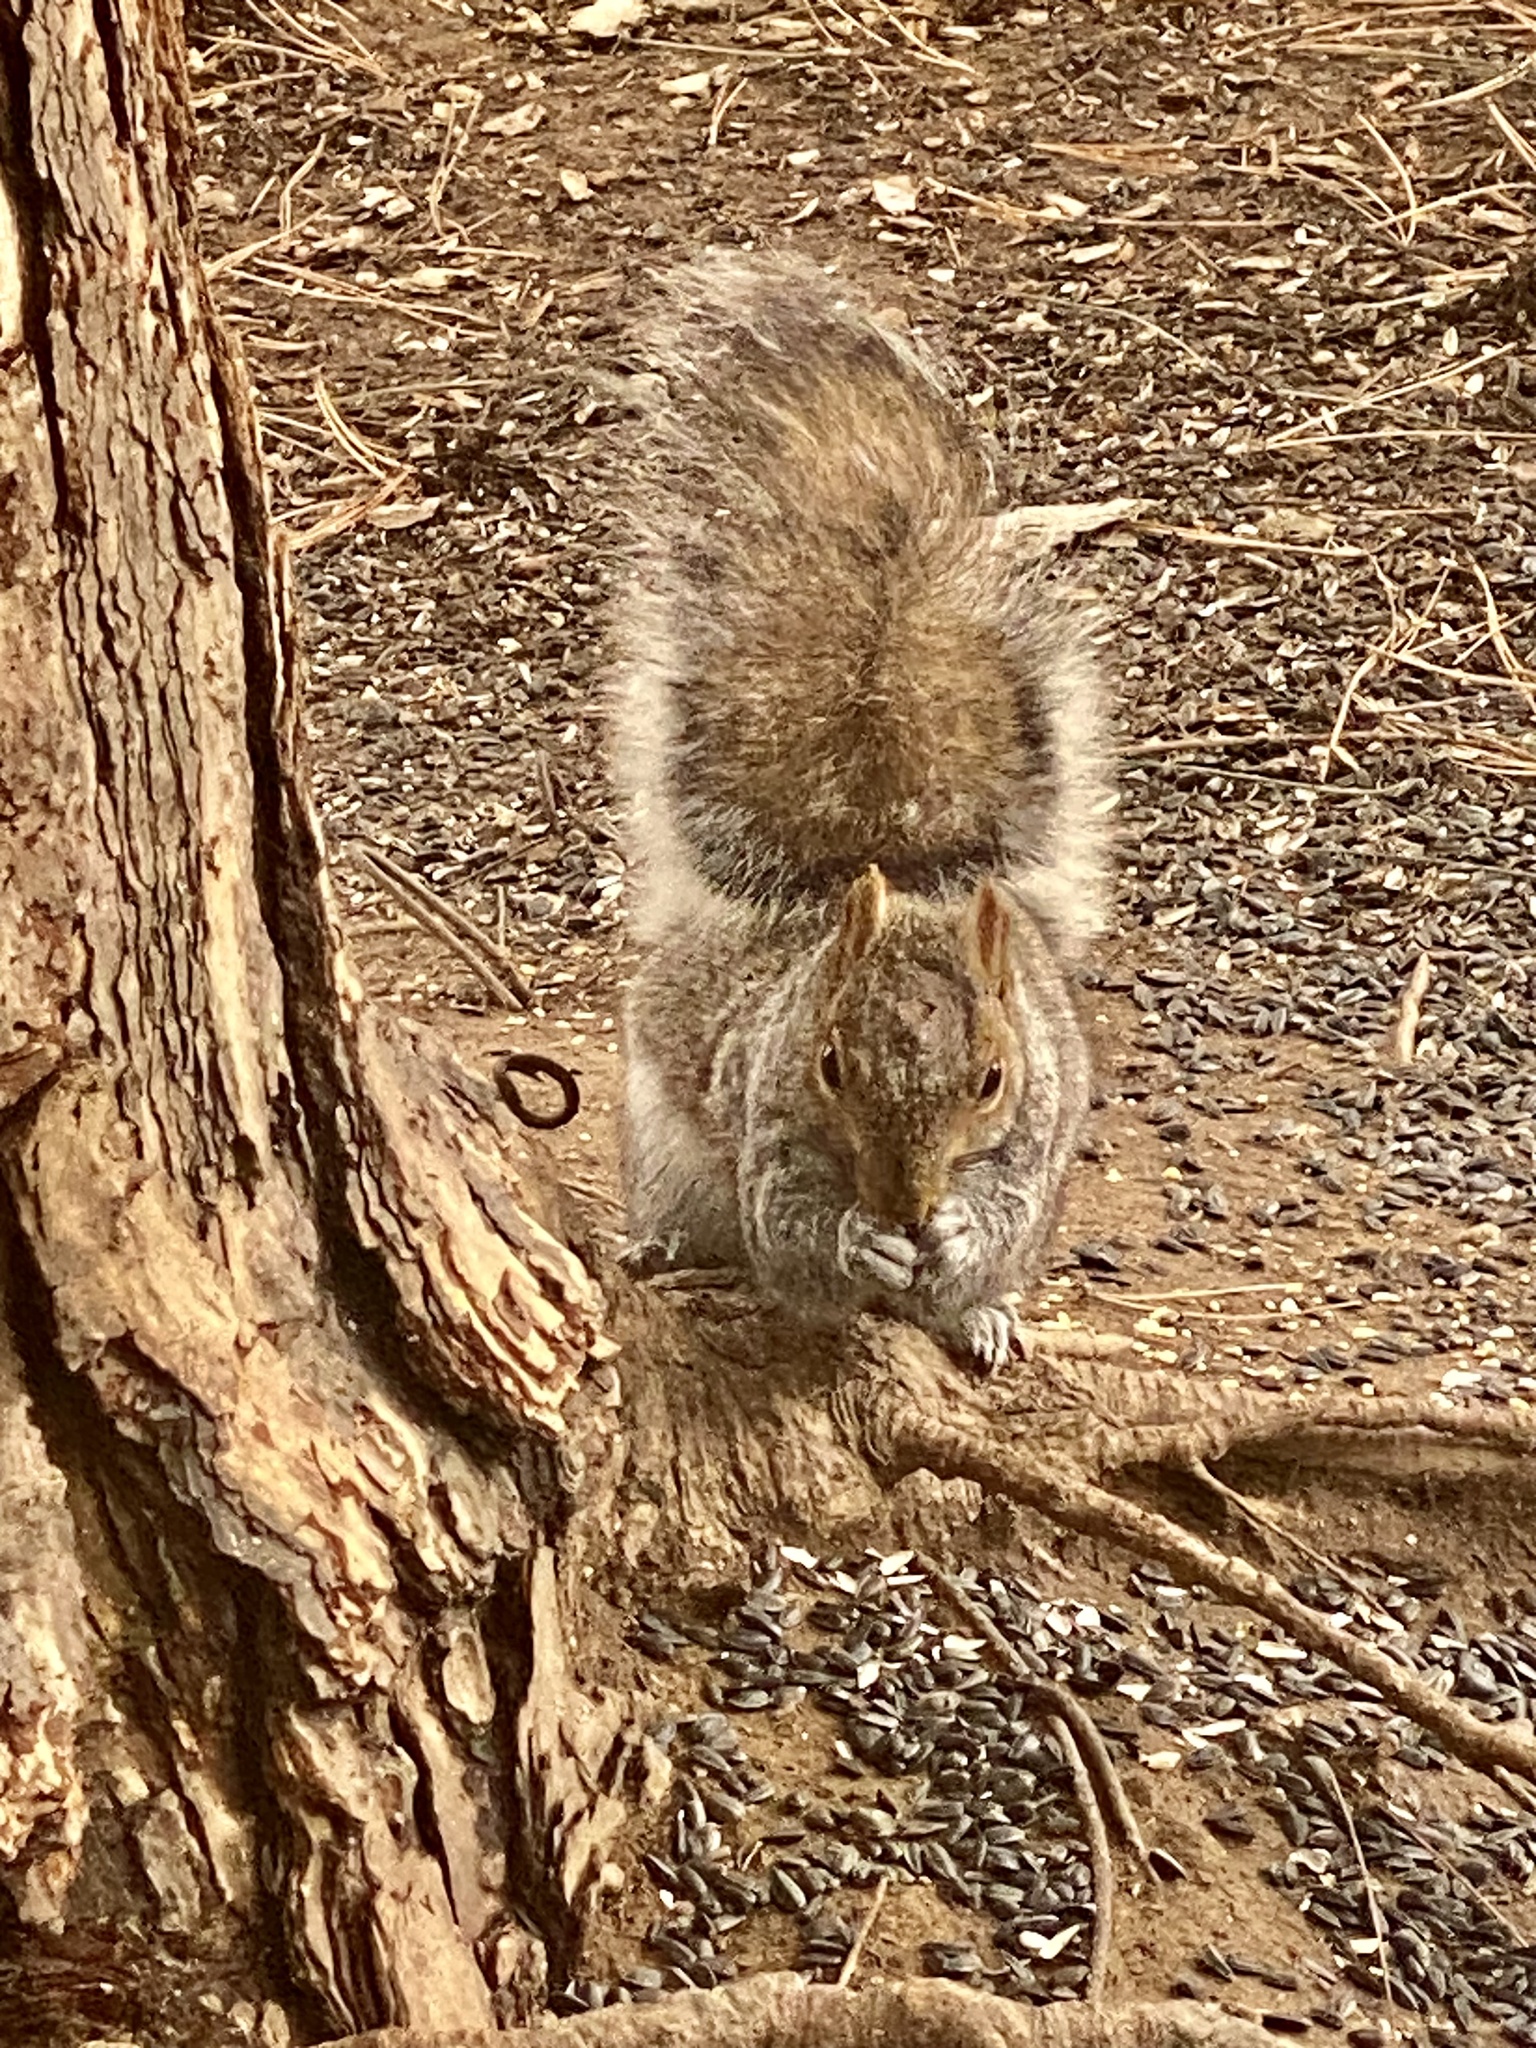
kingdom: Animalia
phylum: Chordata
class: Mammalia
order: Rodentia
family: Sciuridae
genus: Sciurus
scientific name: Sciurus carolinensis
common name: Eastern gray squirrel
